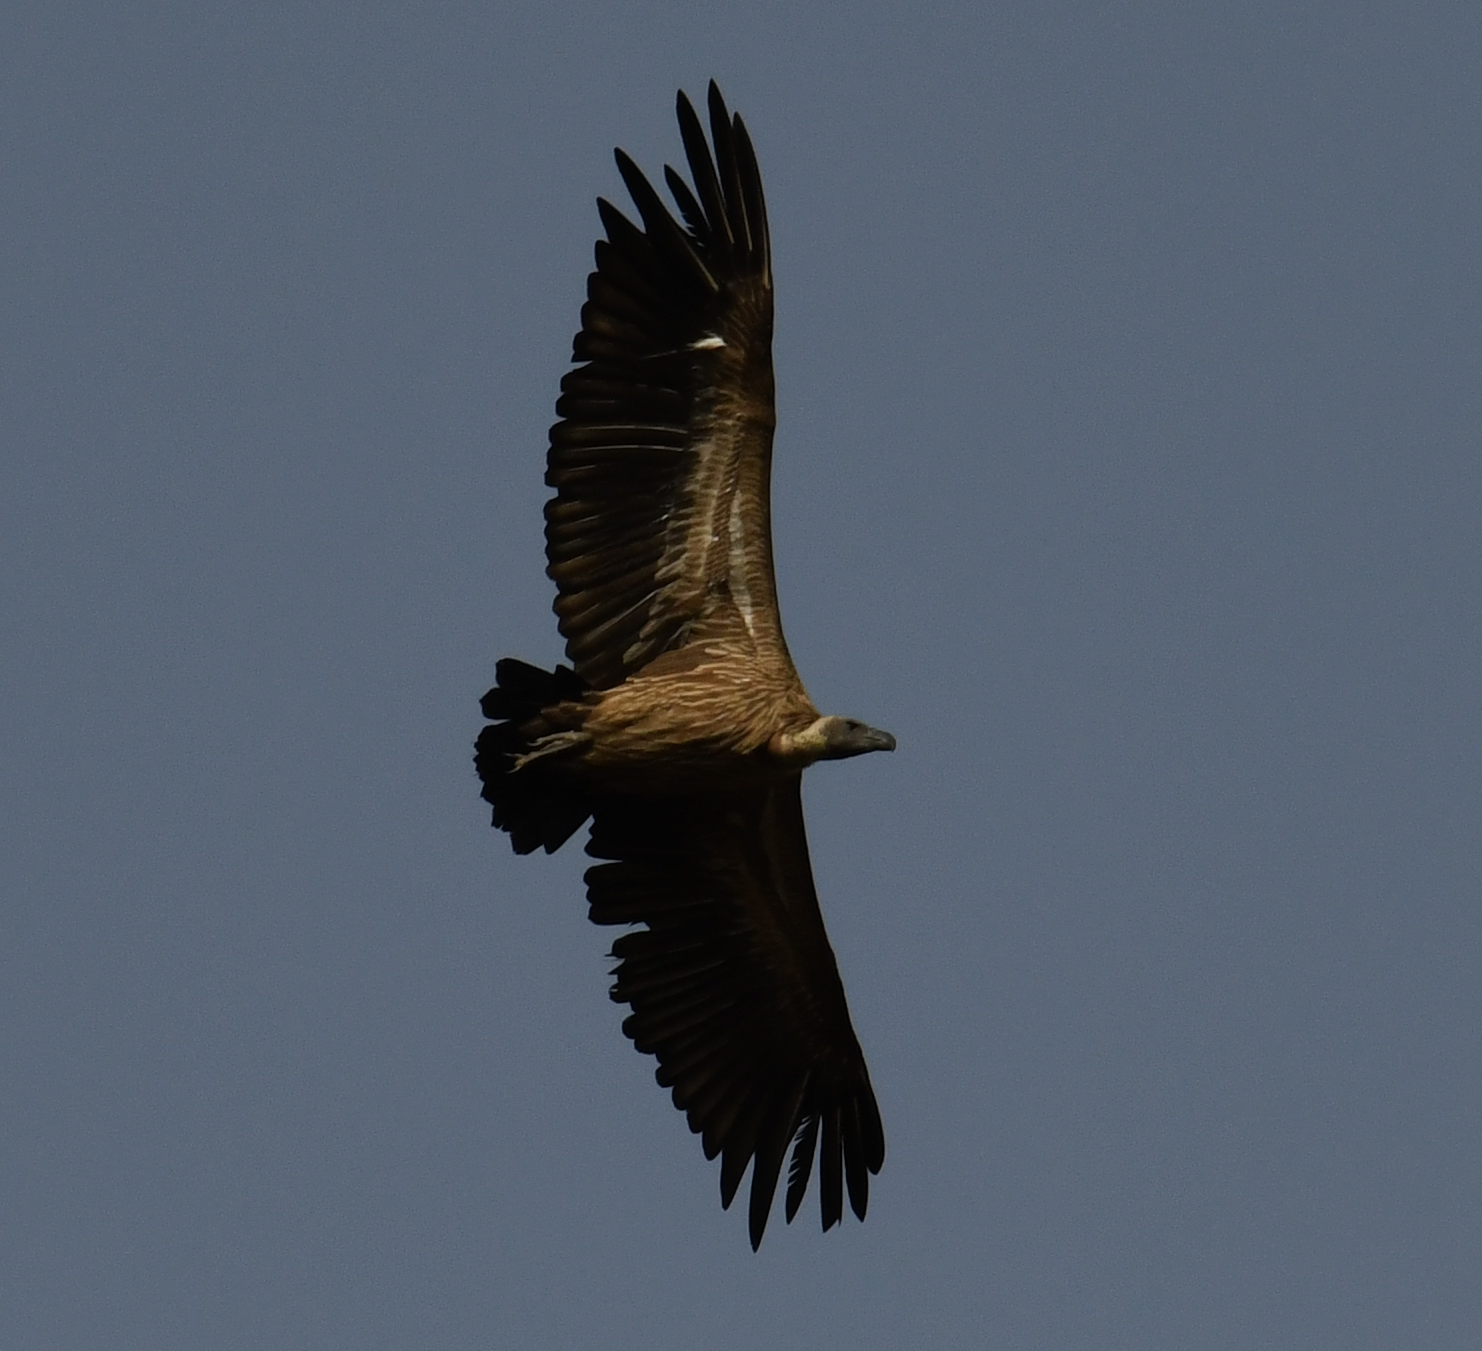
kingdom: Animalia
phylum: Chordata
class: Aves
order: Accipitriformes
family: Accipitridae
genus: Gyps
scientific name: Gyps africanus
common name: White-backed vulture
